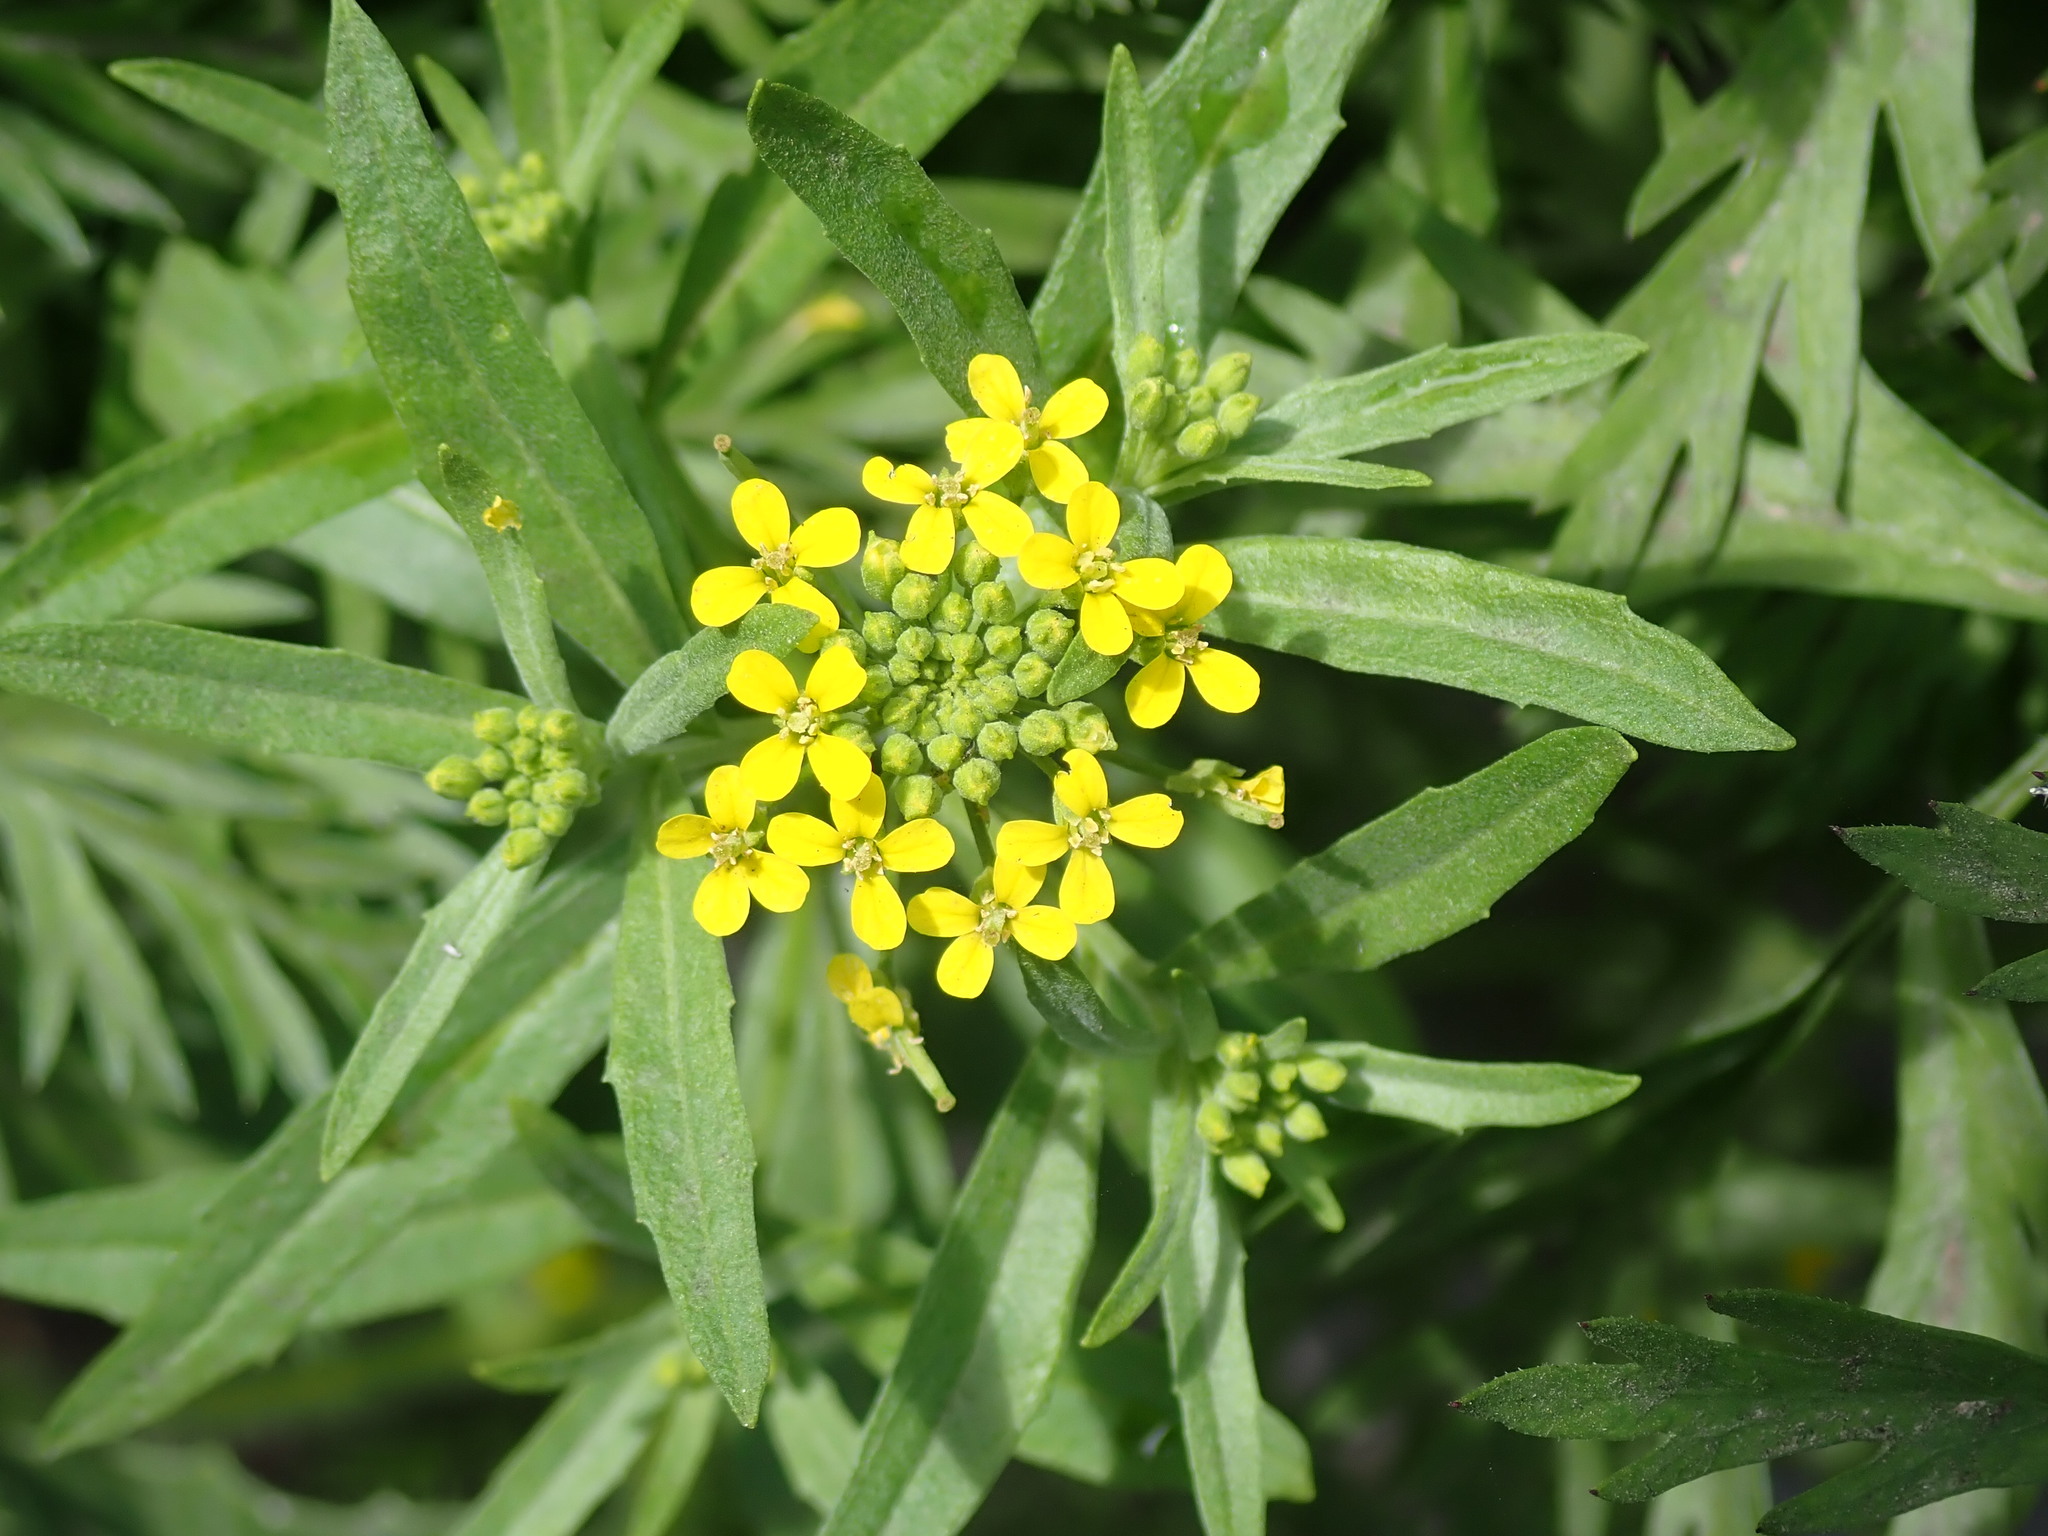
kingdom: Plantae
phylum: Tracheophyta
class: Magnoliopsida
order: Brassicales
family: Brassicaceae
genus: Erysimum
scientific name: Erysimum cheiranthoides
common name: Treacle mustard
